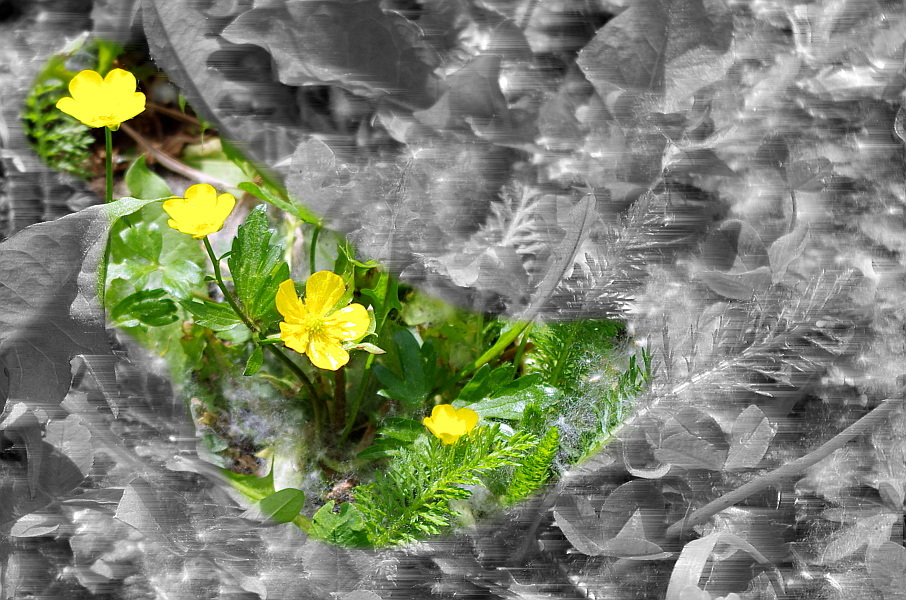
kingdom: Plantae
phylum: Tracheophyta
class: Magnoliopsida
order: Ranunculales
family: Ranunculaceae
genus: Ranunculus
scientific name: Ranunculus repens
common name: Creeping buttercup
